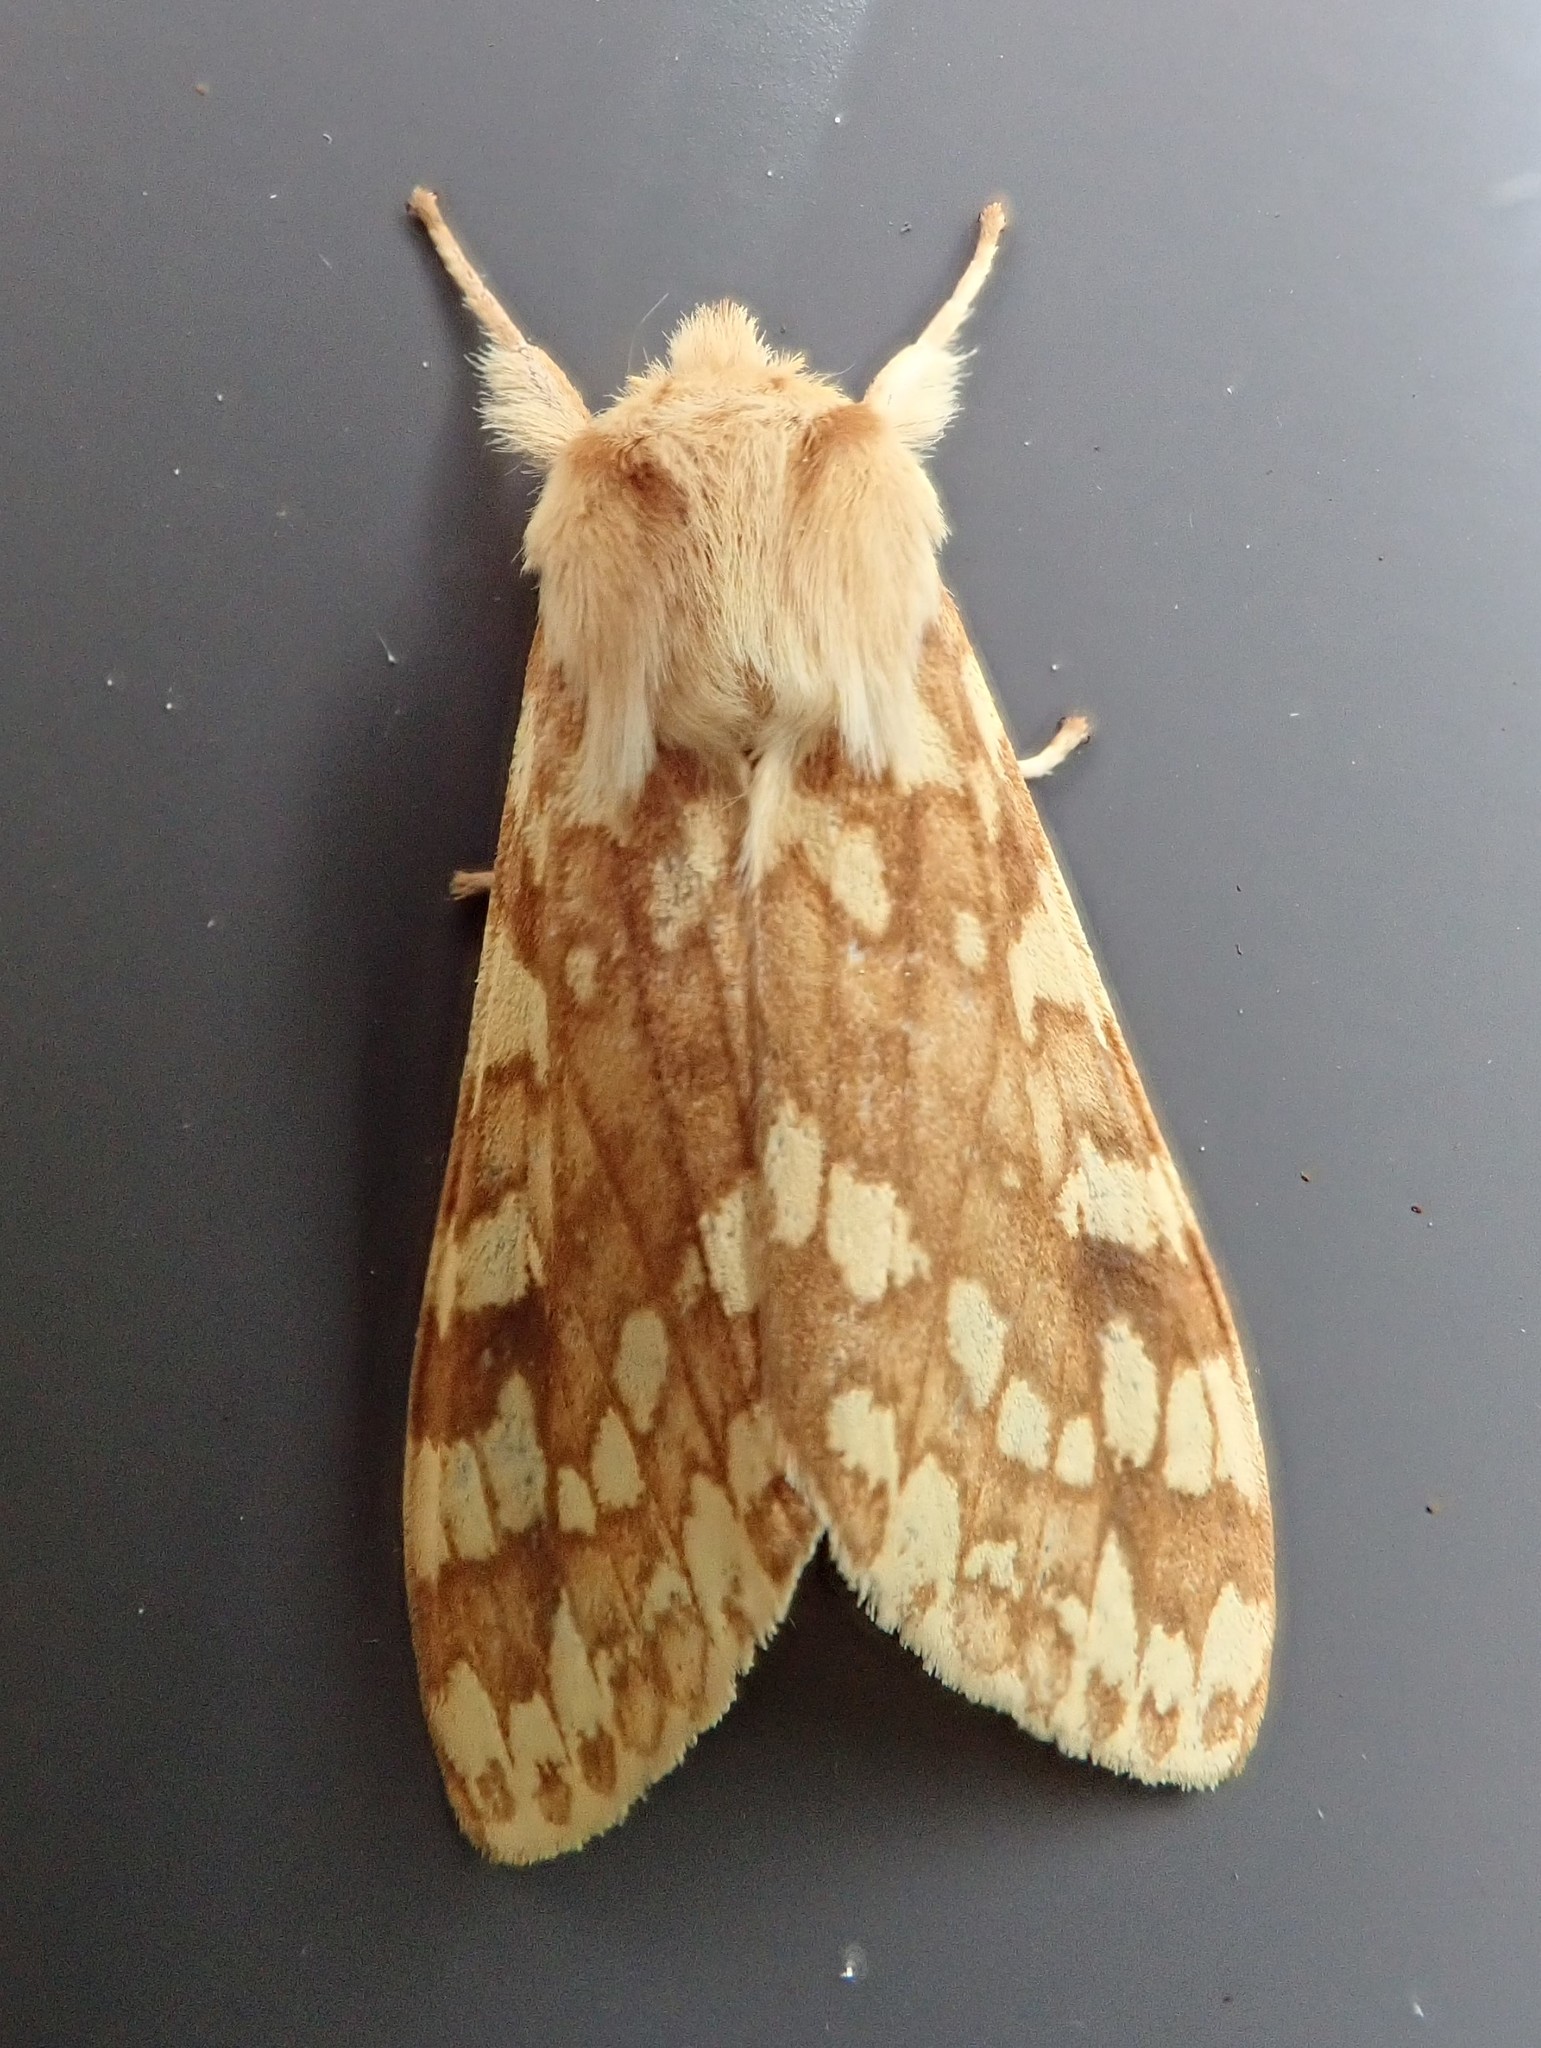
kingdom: Animalia
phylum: Arthropoda
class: Insecta
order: Lepidoptera
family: Erebidae
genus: Lophocampa
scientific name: Lophocampa maculata
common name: Spotted tussock moth
